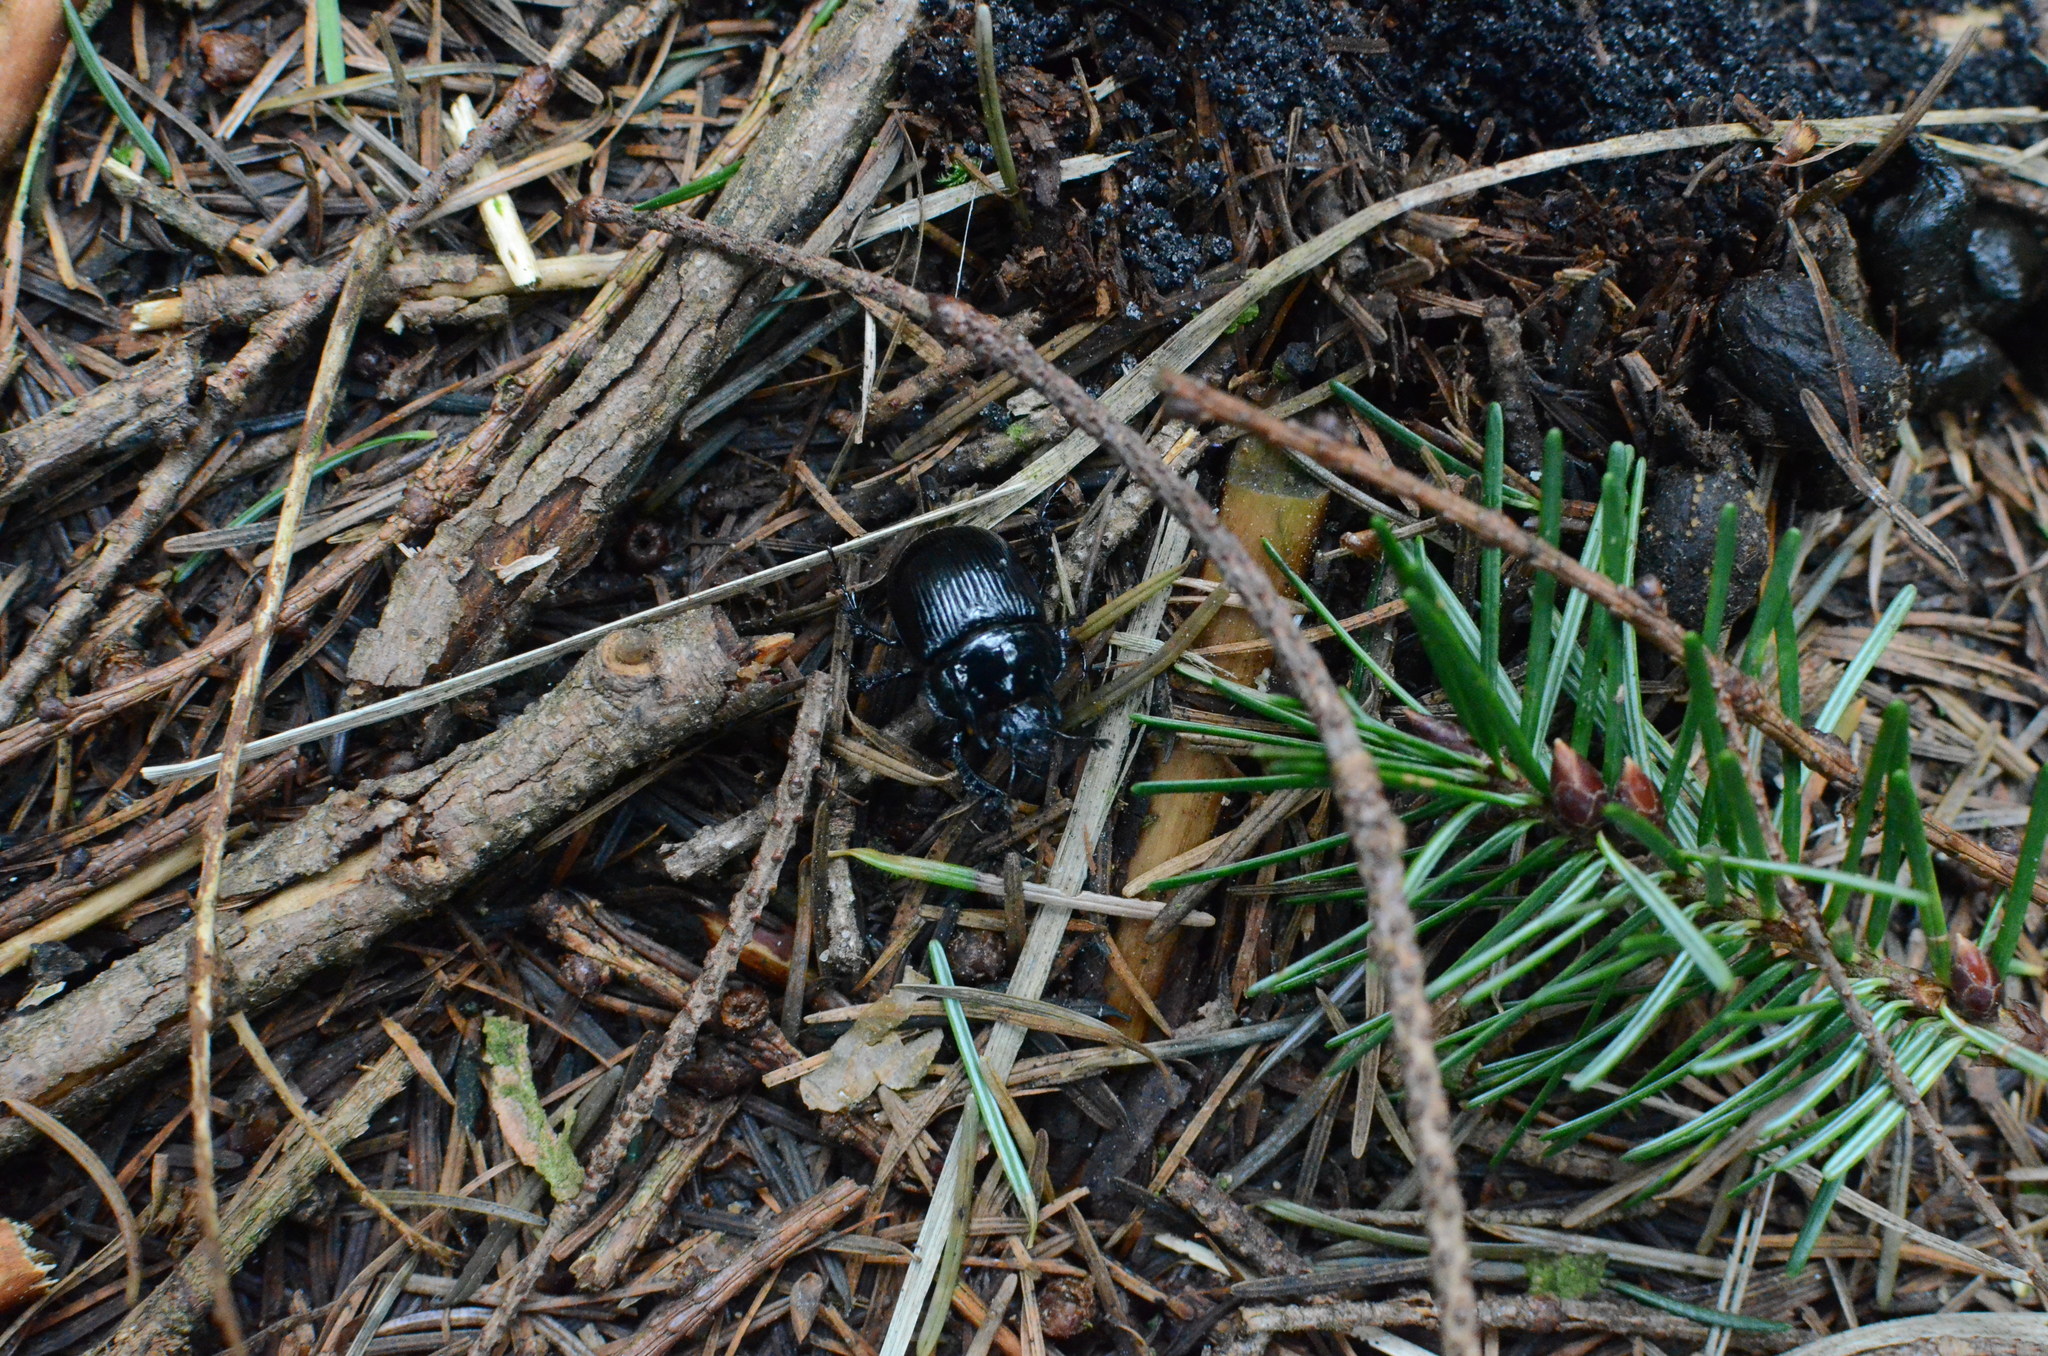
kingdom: Animalia
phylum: Arthropoda
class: Insecta
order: Coleoptera
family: Geotrupidae
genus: Typhaeus
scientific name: Typhaeus typhoeus
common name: Minotaur beetle
